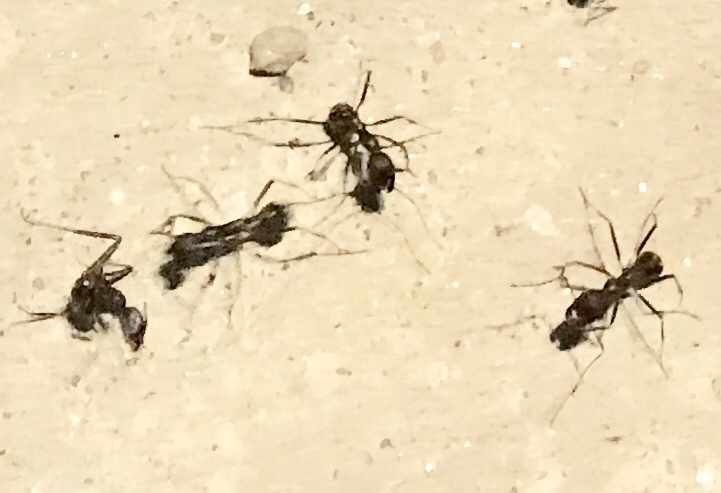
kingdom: Animalia
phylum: Arthropoda
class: Insecta
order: Hymenoptera
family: Formicidae
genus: Novomessor
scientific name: Novomessor cockerelli
